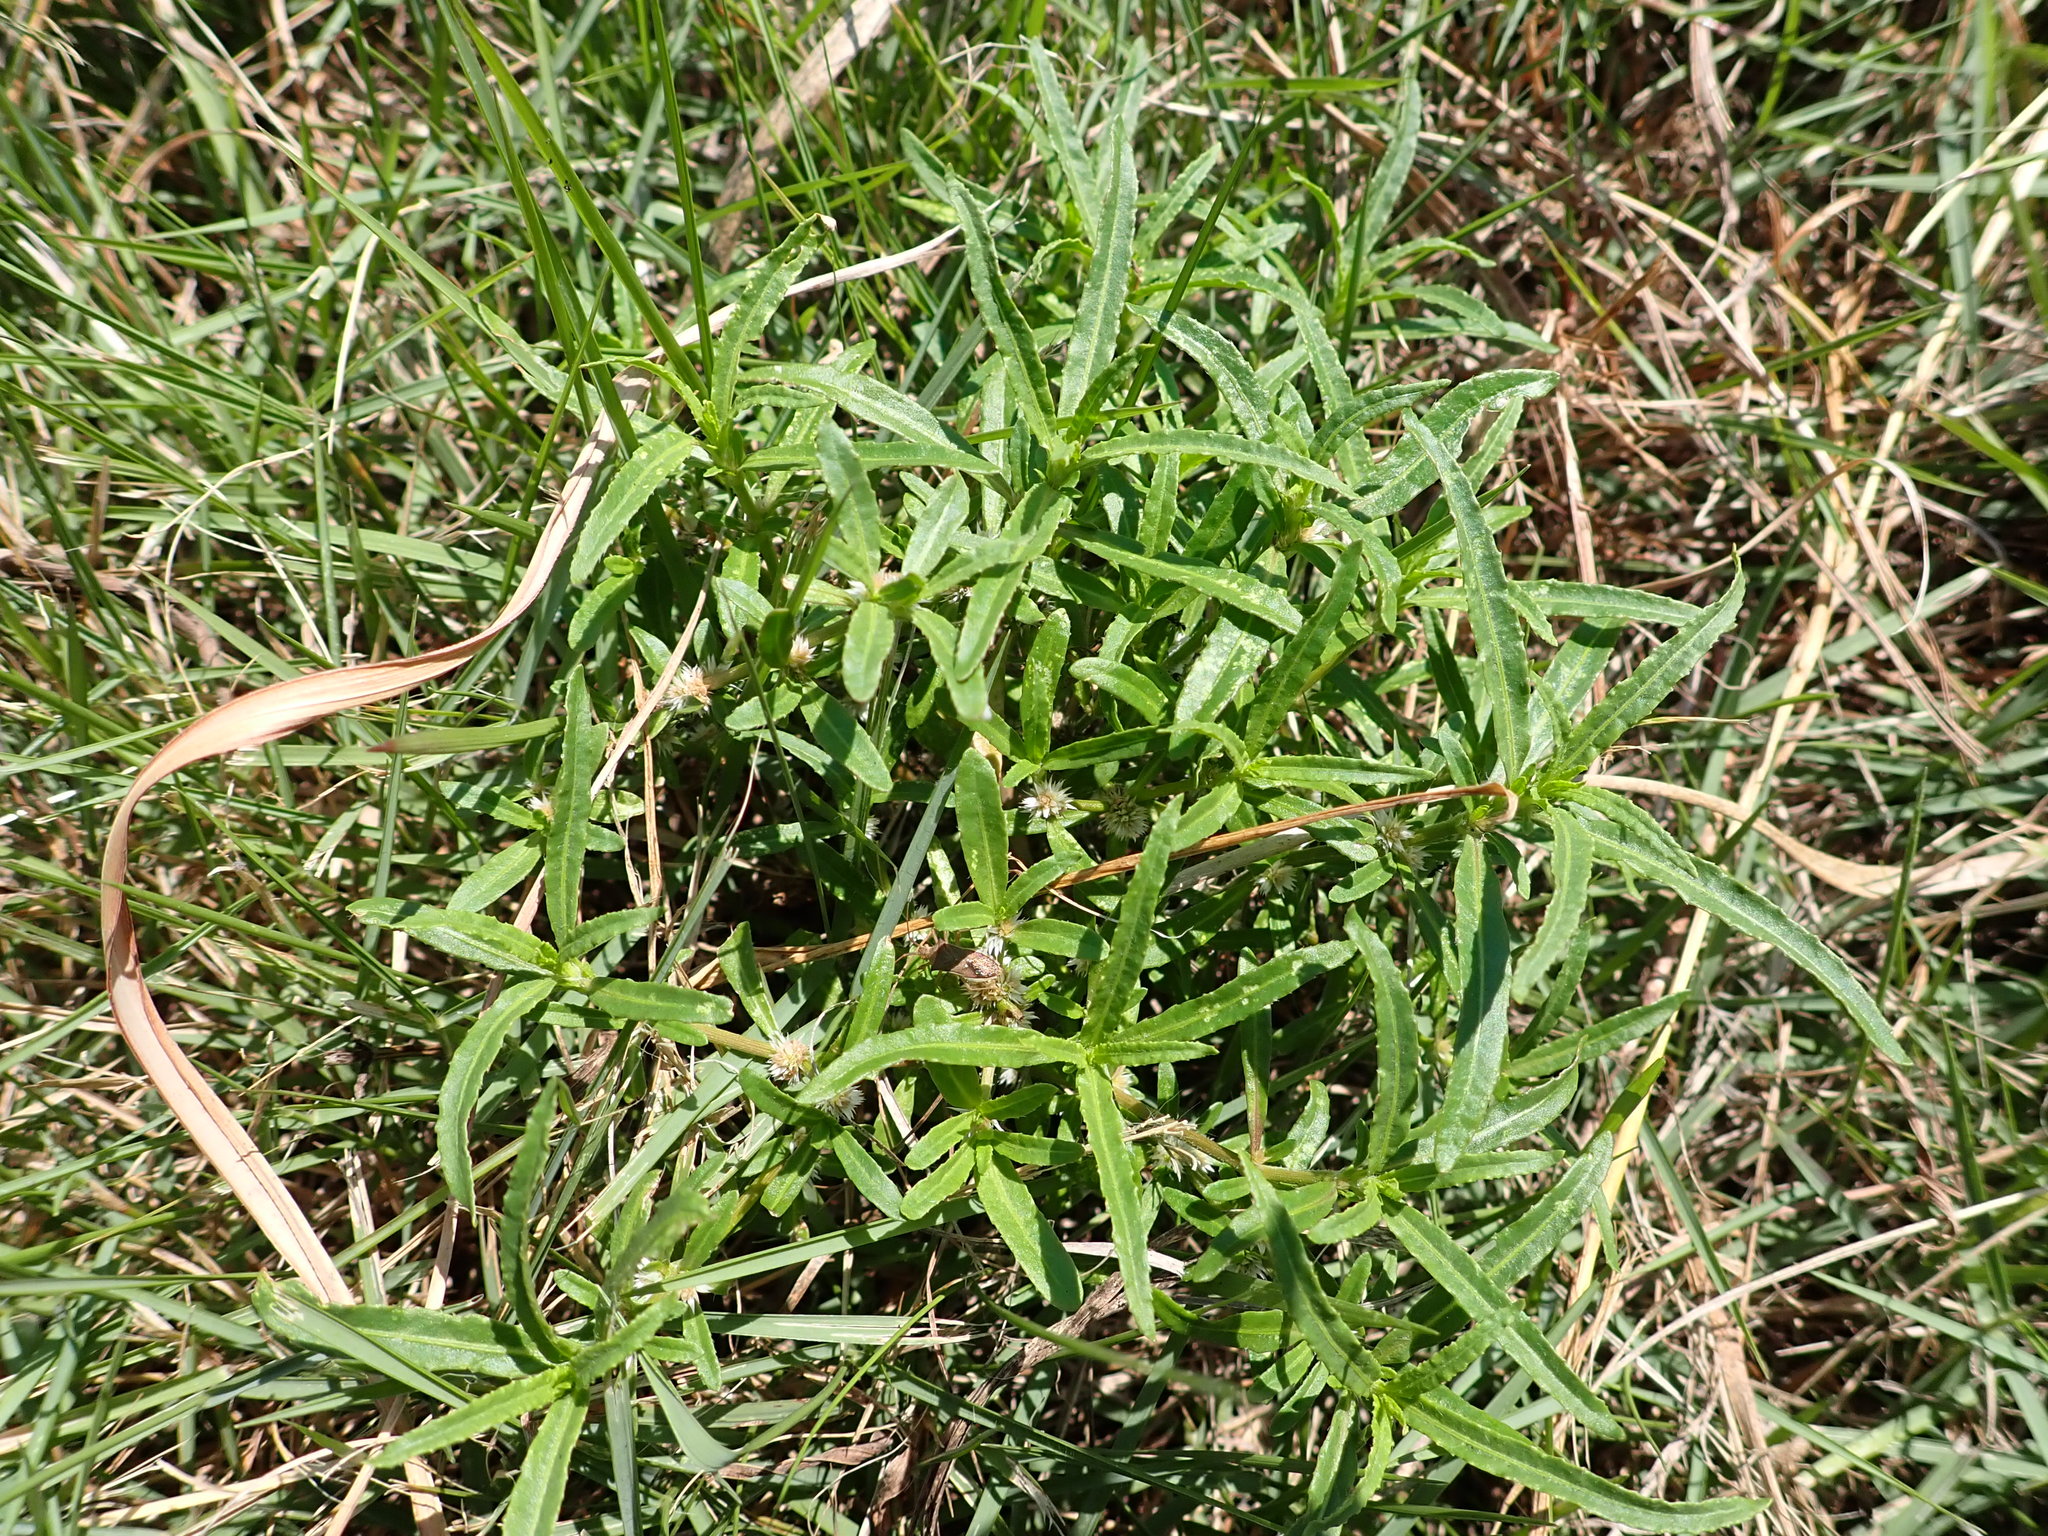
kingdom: Plantae
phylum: Tracheophyta
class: Magnoliopsida
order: Caryophyllales
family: Amaranthaceae
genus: Alternanthera
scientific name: Alternanthera sessilis
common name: Sessile joyweed
